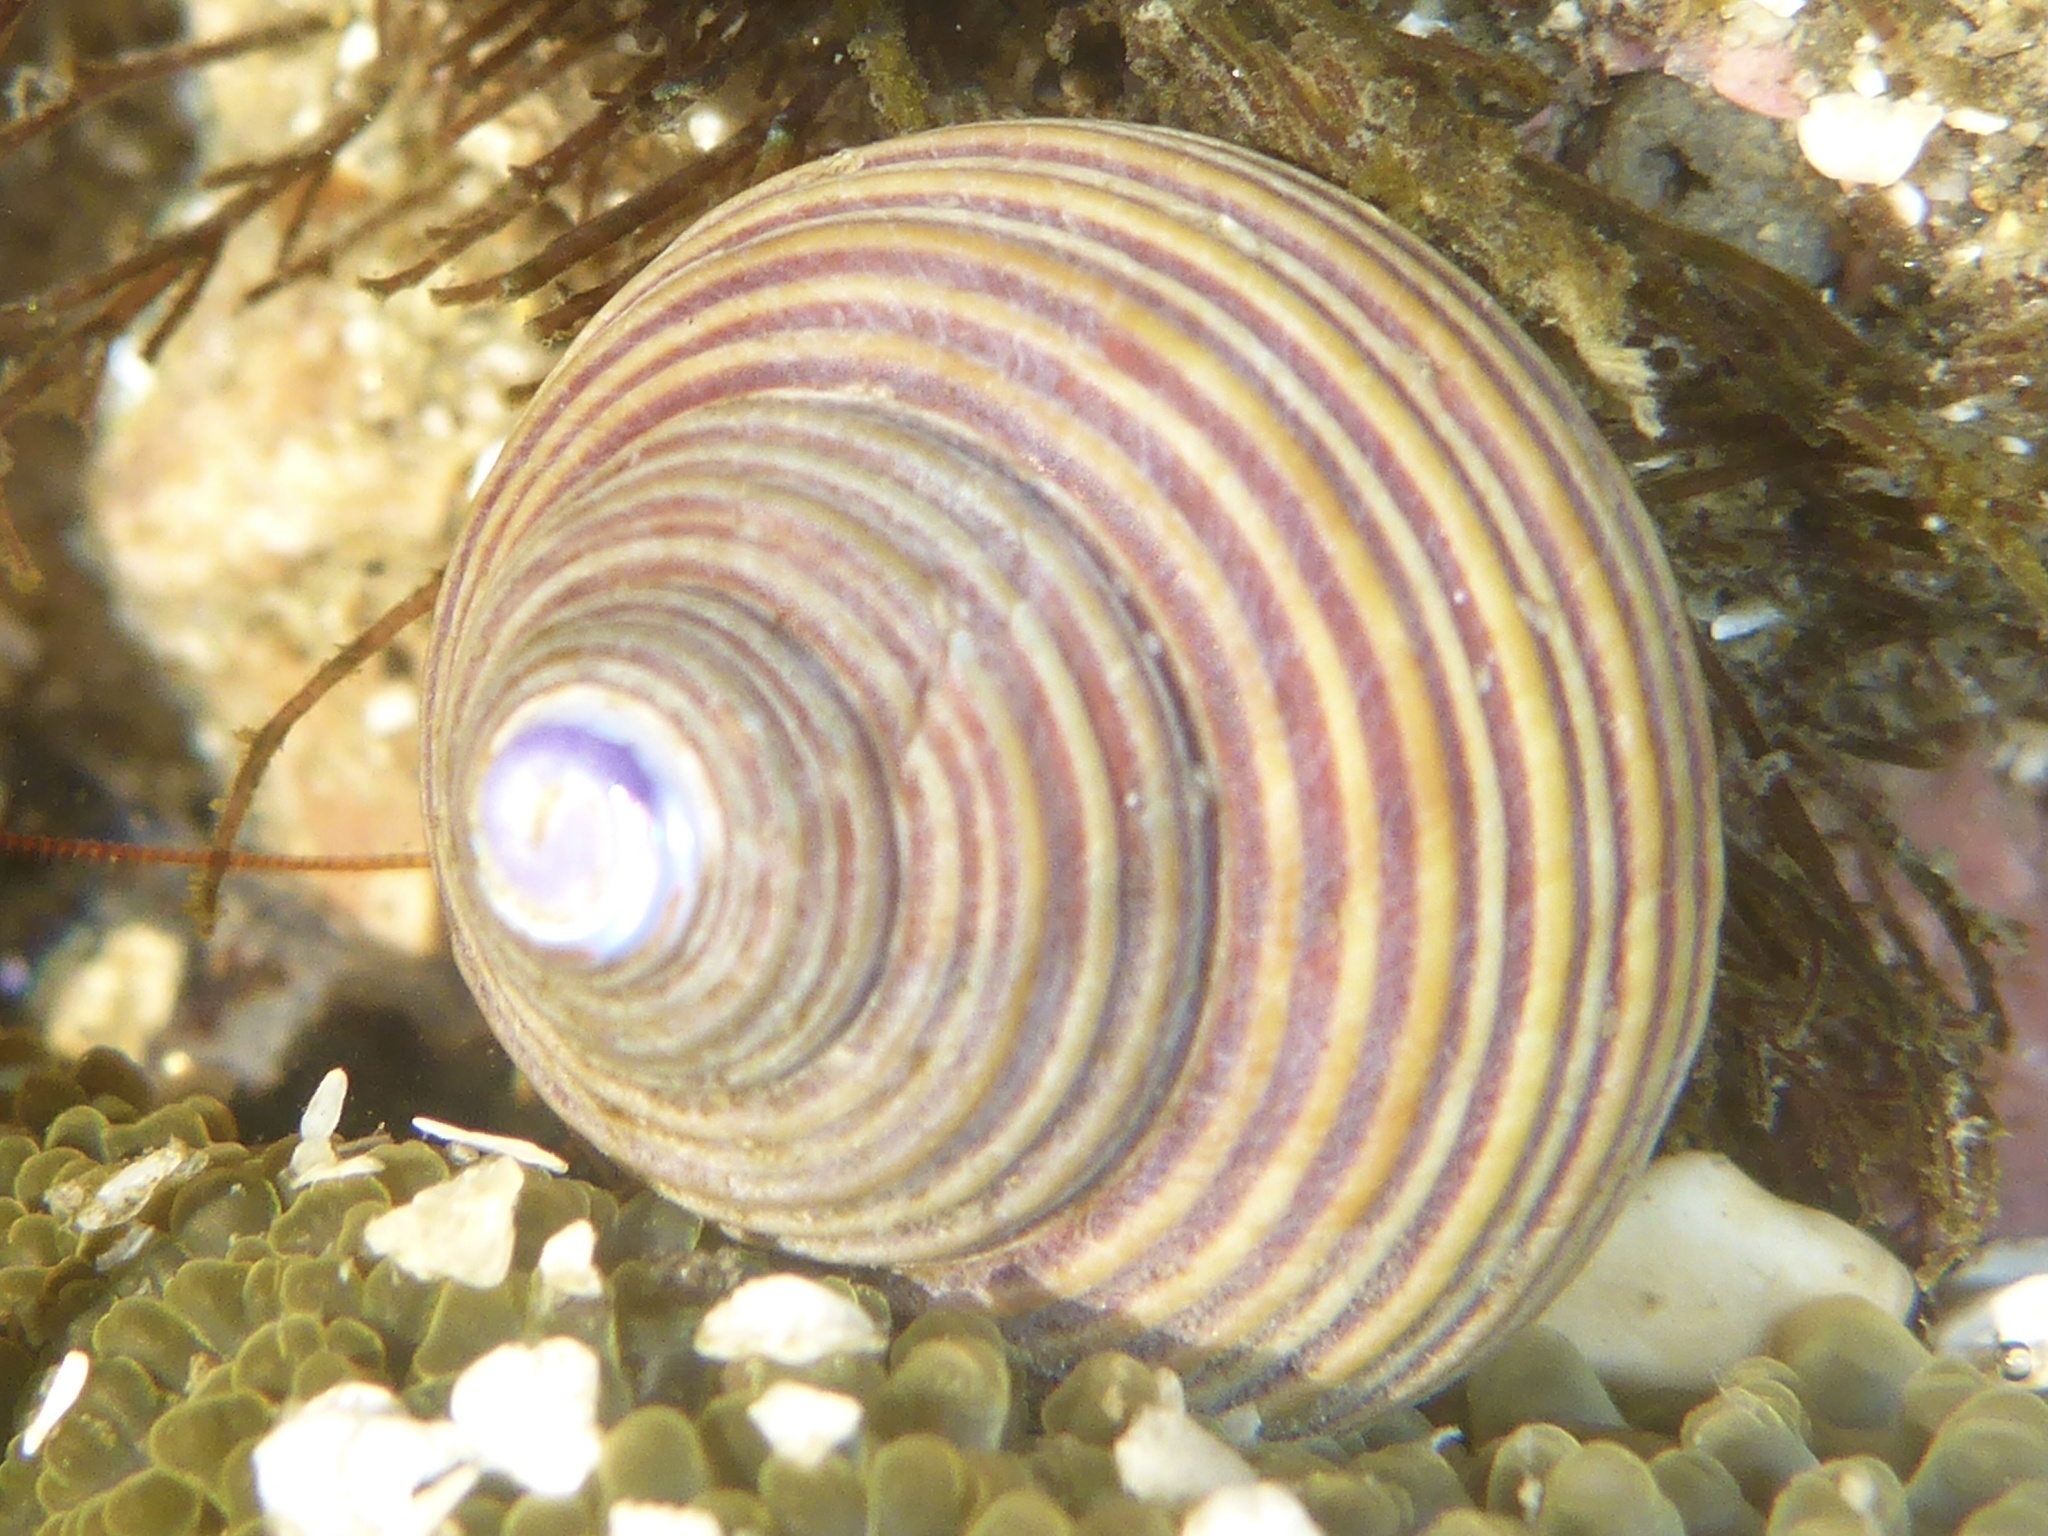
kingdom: Animalia
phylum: Mollusca
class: Gastropoda
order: Trochida
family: Calliostomatidae
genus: Calliostoma
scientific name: Calliostoma ligatum
